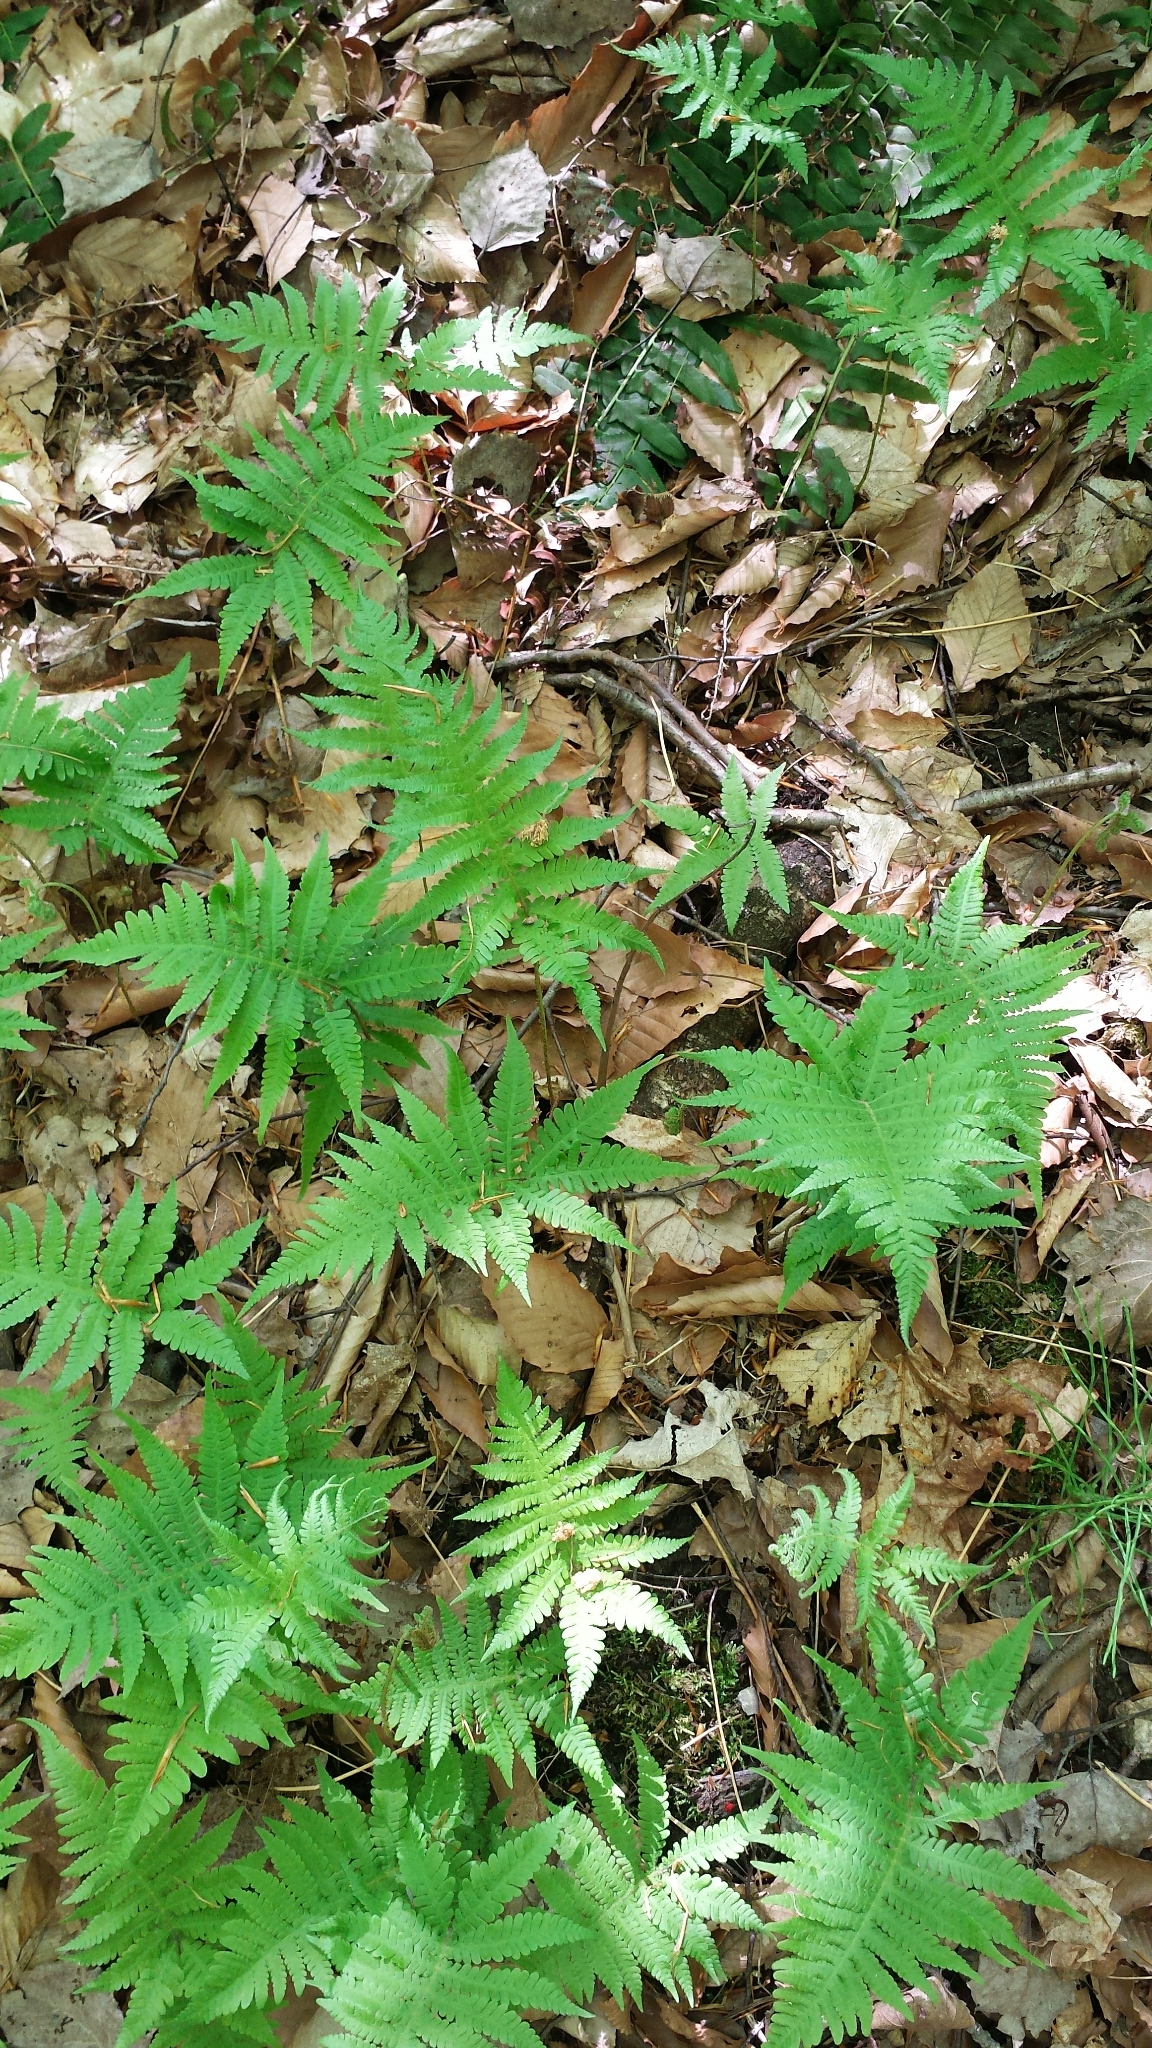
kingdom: Plantae
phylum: Tracheophyta
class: Polypodiopsida
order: Polypodiales
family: Thelypteridaceae
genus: Phegopteris
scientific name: Phegopteris connectilis
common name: Beech fern
